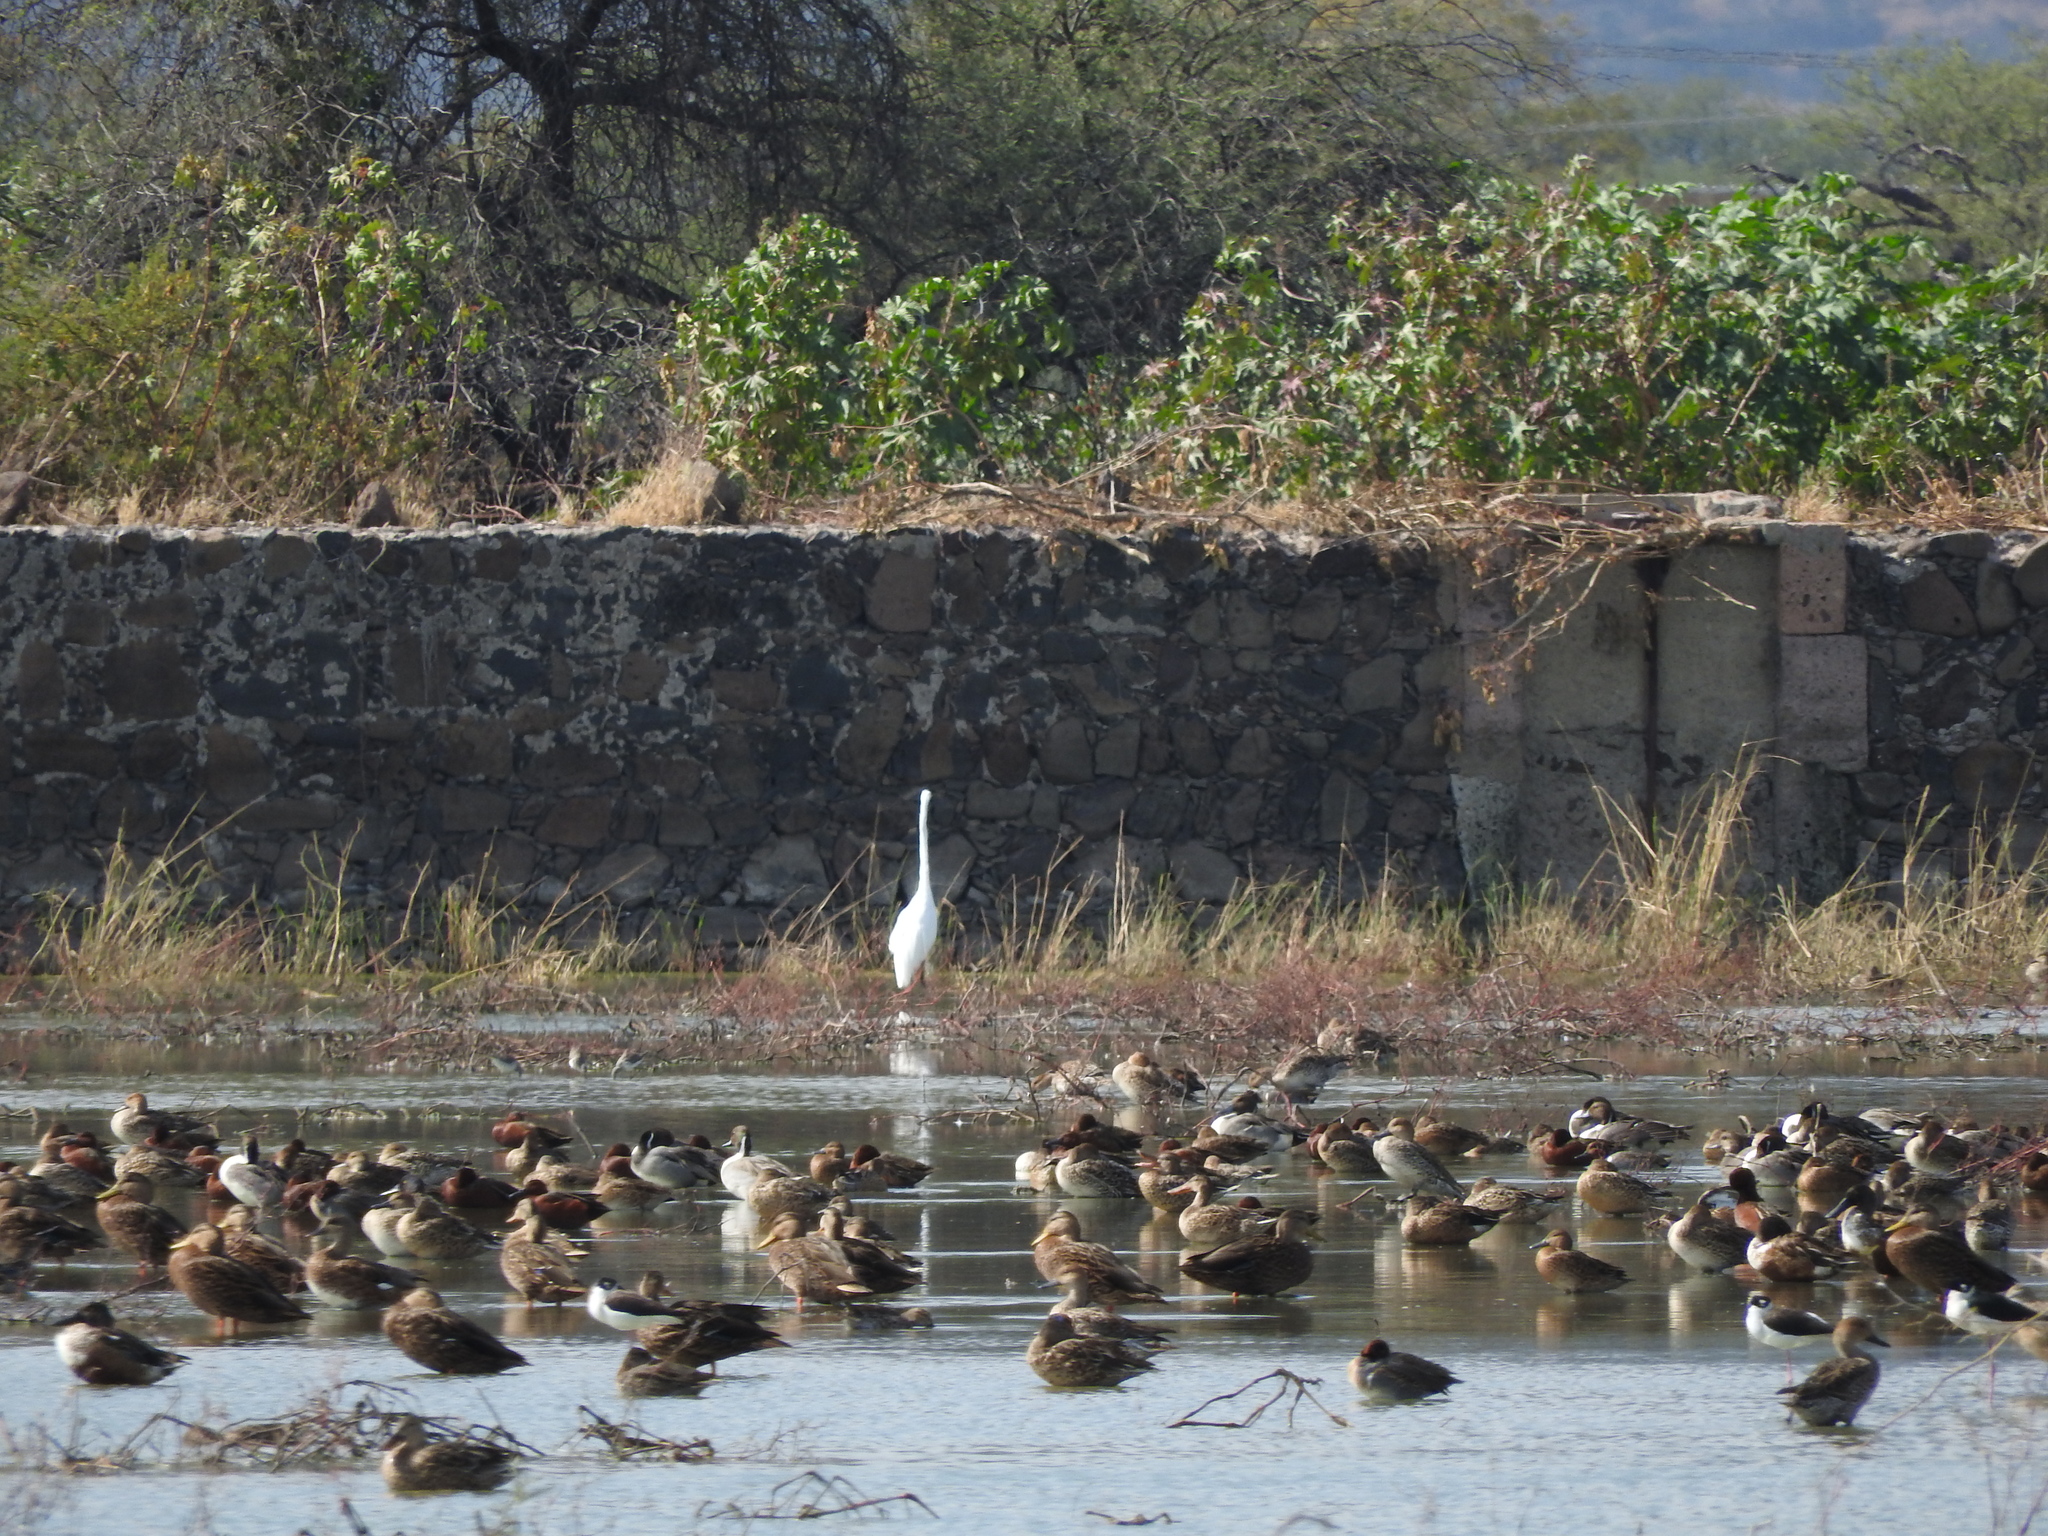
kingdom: Animalia
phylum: Chordata
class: Aves
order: Pelecaniformes
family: Ardeidae
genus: Ardea
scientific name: Ardea alba
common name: Great egret
